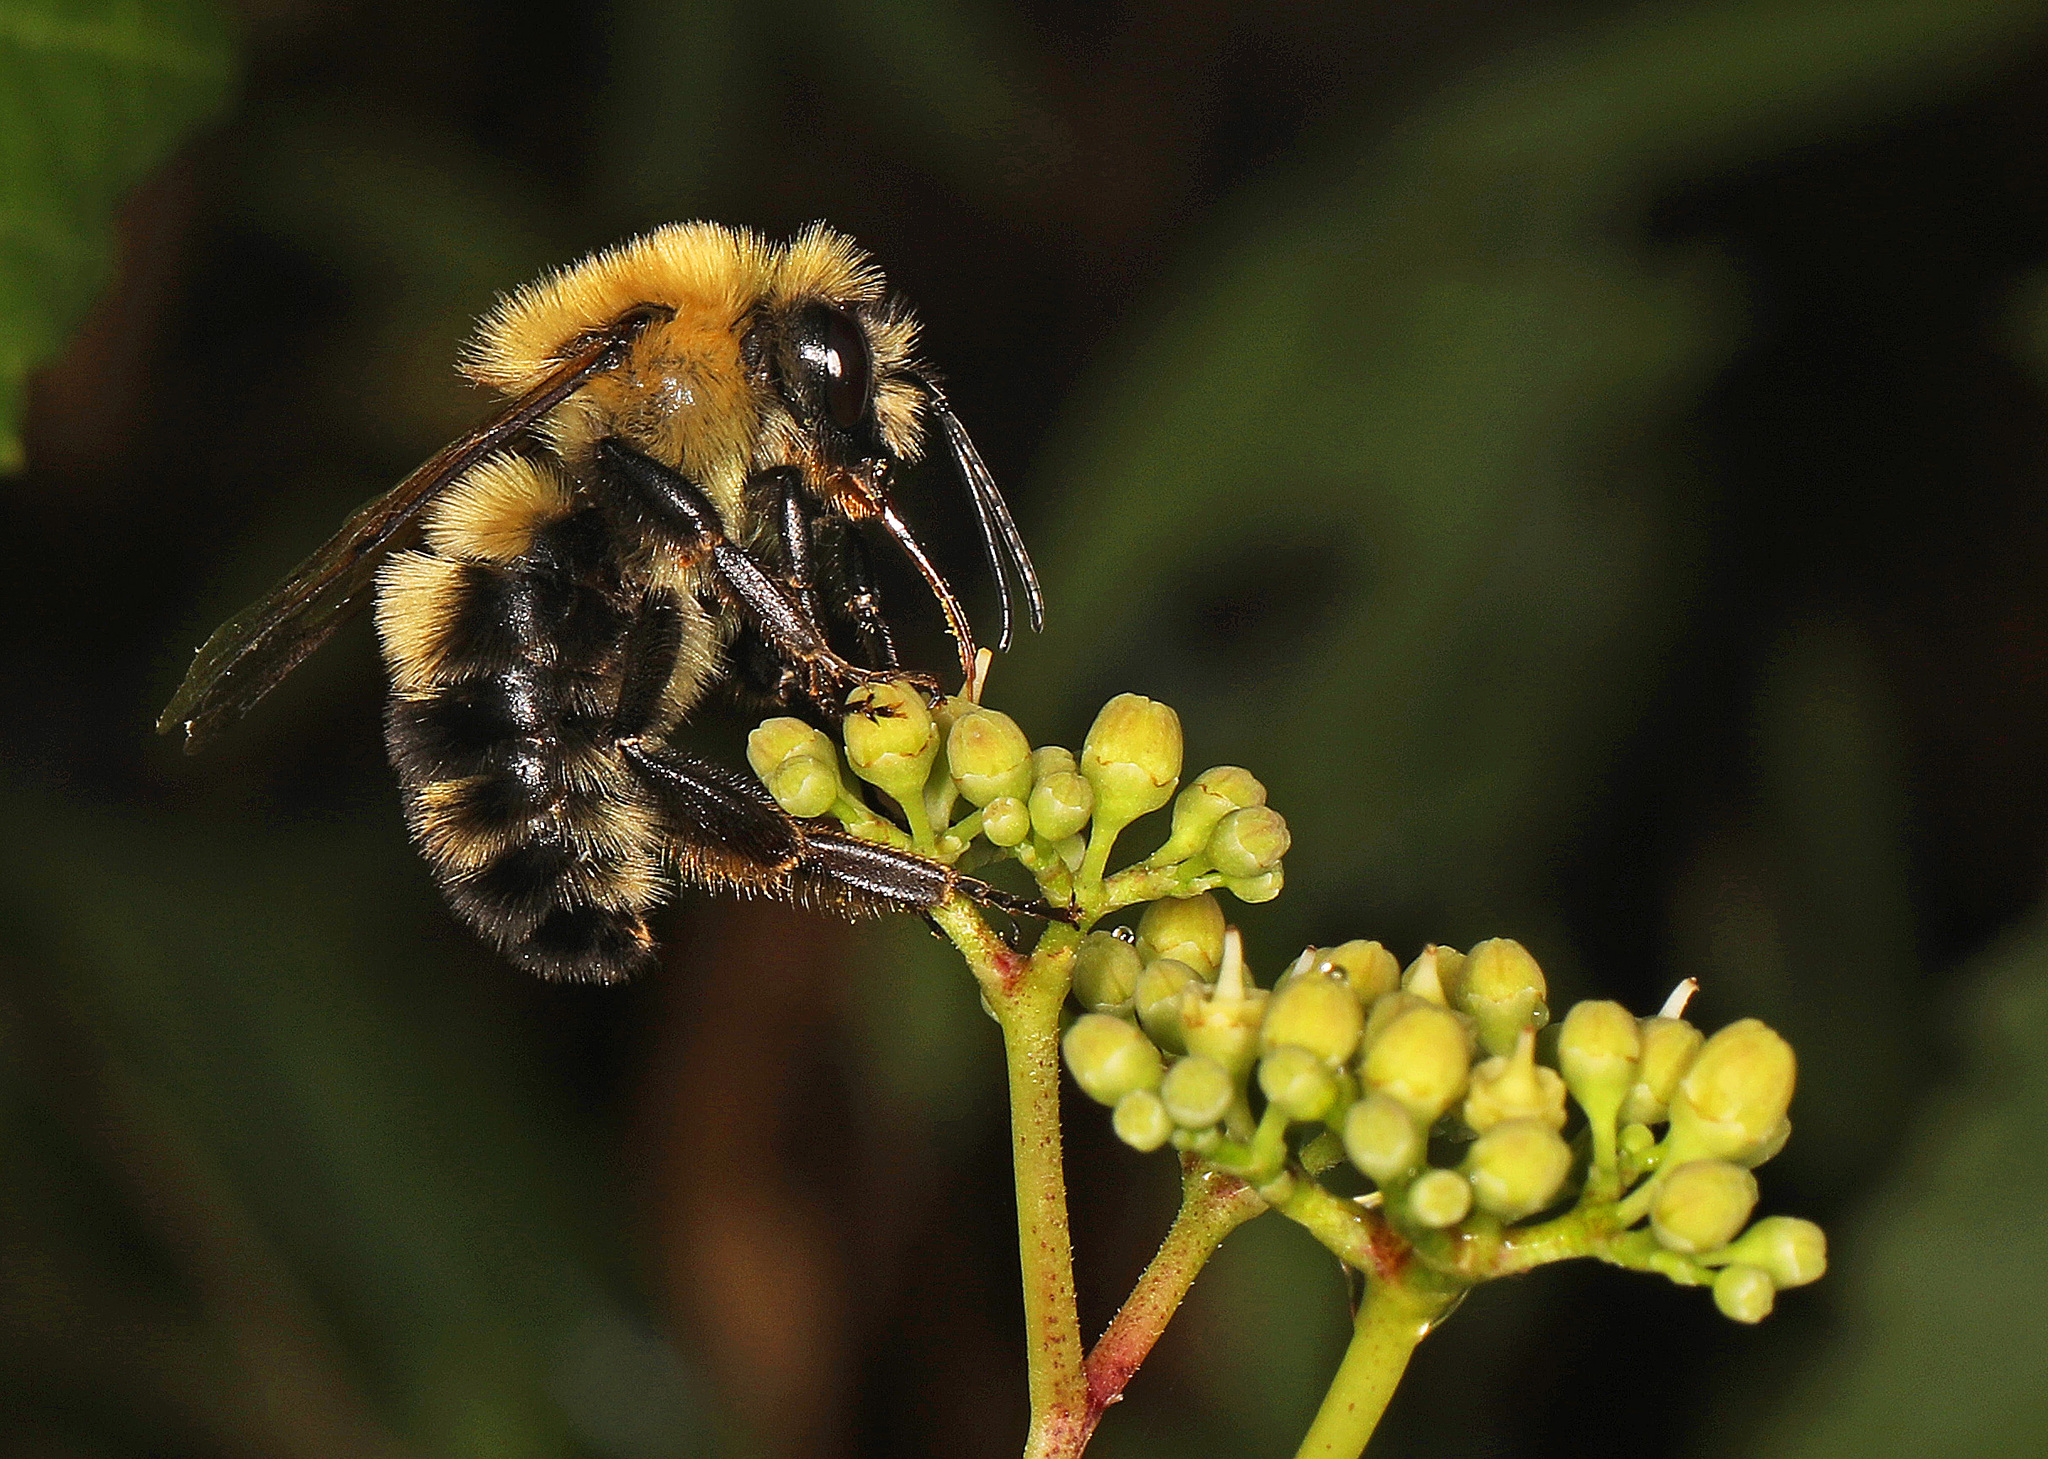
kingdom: Animalia
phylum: Arthropoda
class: Insecta
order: Hymenoptera
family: Apidae
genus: Bombus
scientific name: Bombus bimaculatus
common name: Two-spotted bumble bee
